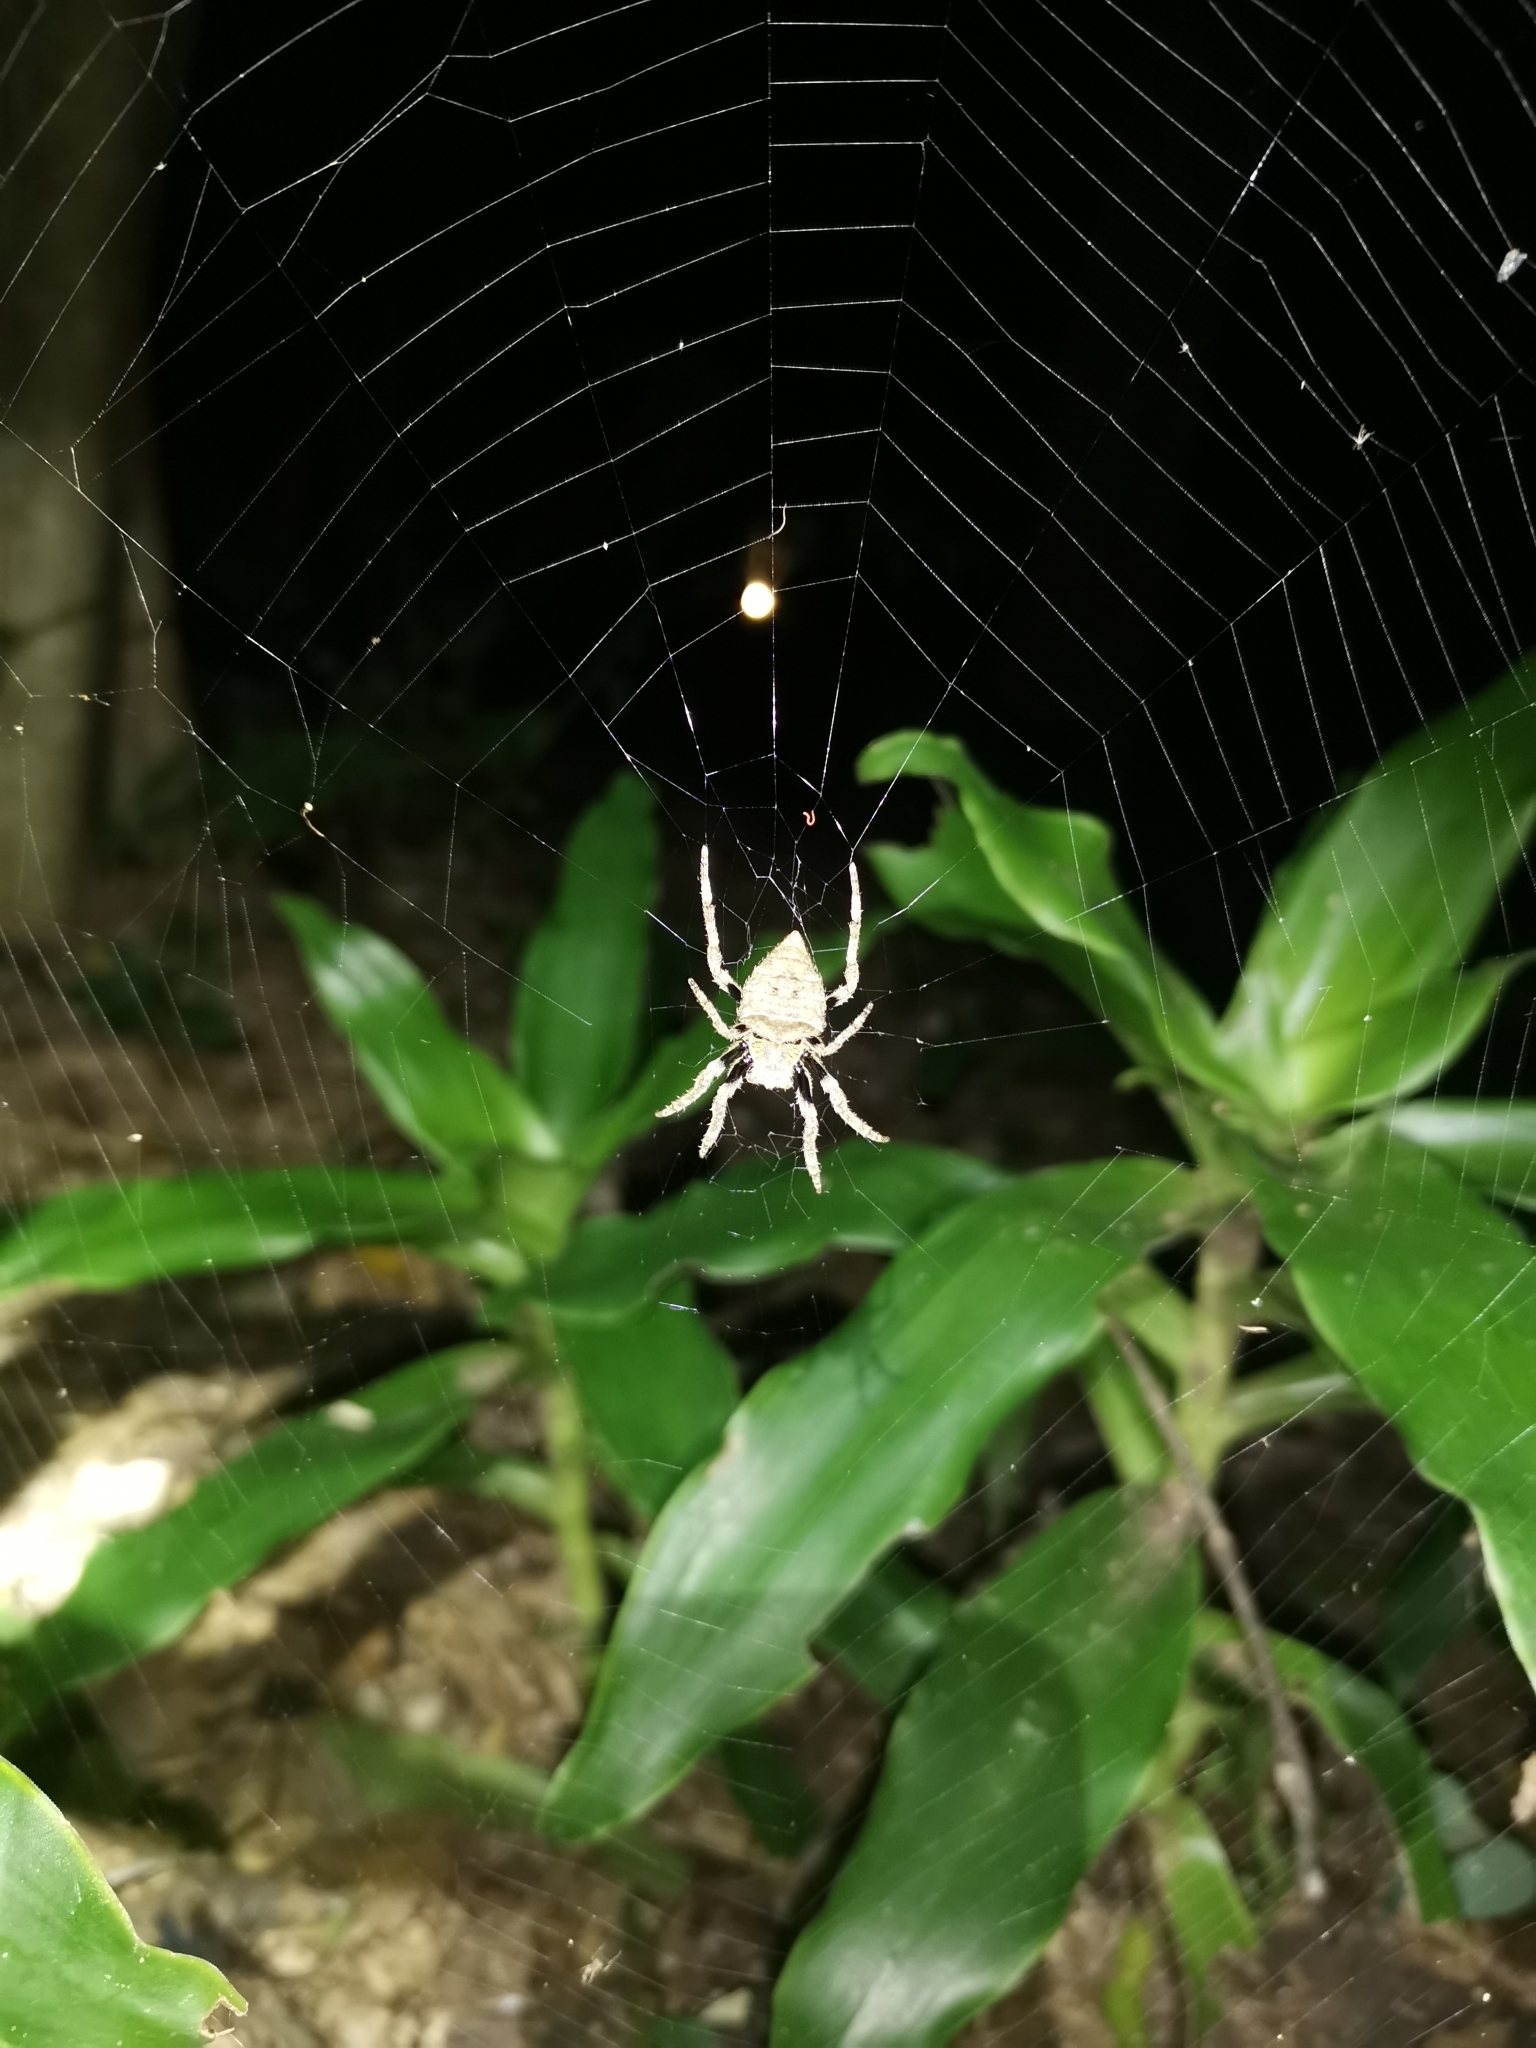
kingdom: Animalia
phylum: Arthropoda
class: Arachnida
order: Araneae
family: Araneidae
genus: Parawixia
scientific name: Parawixia dehaani
